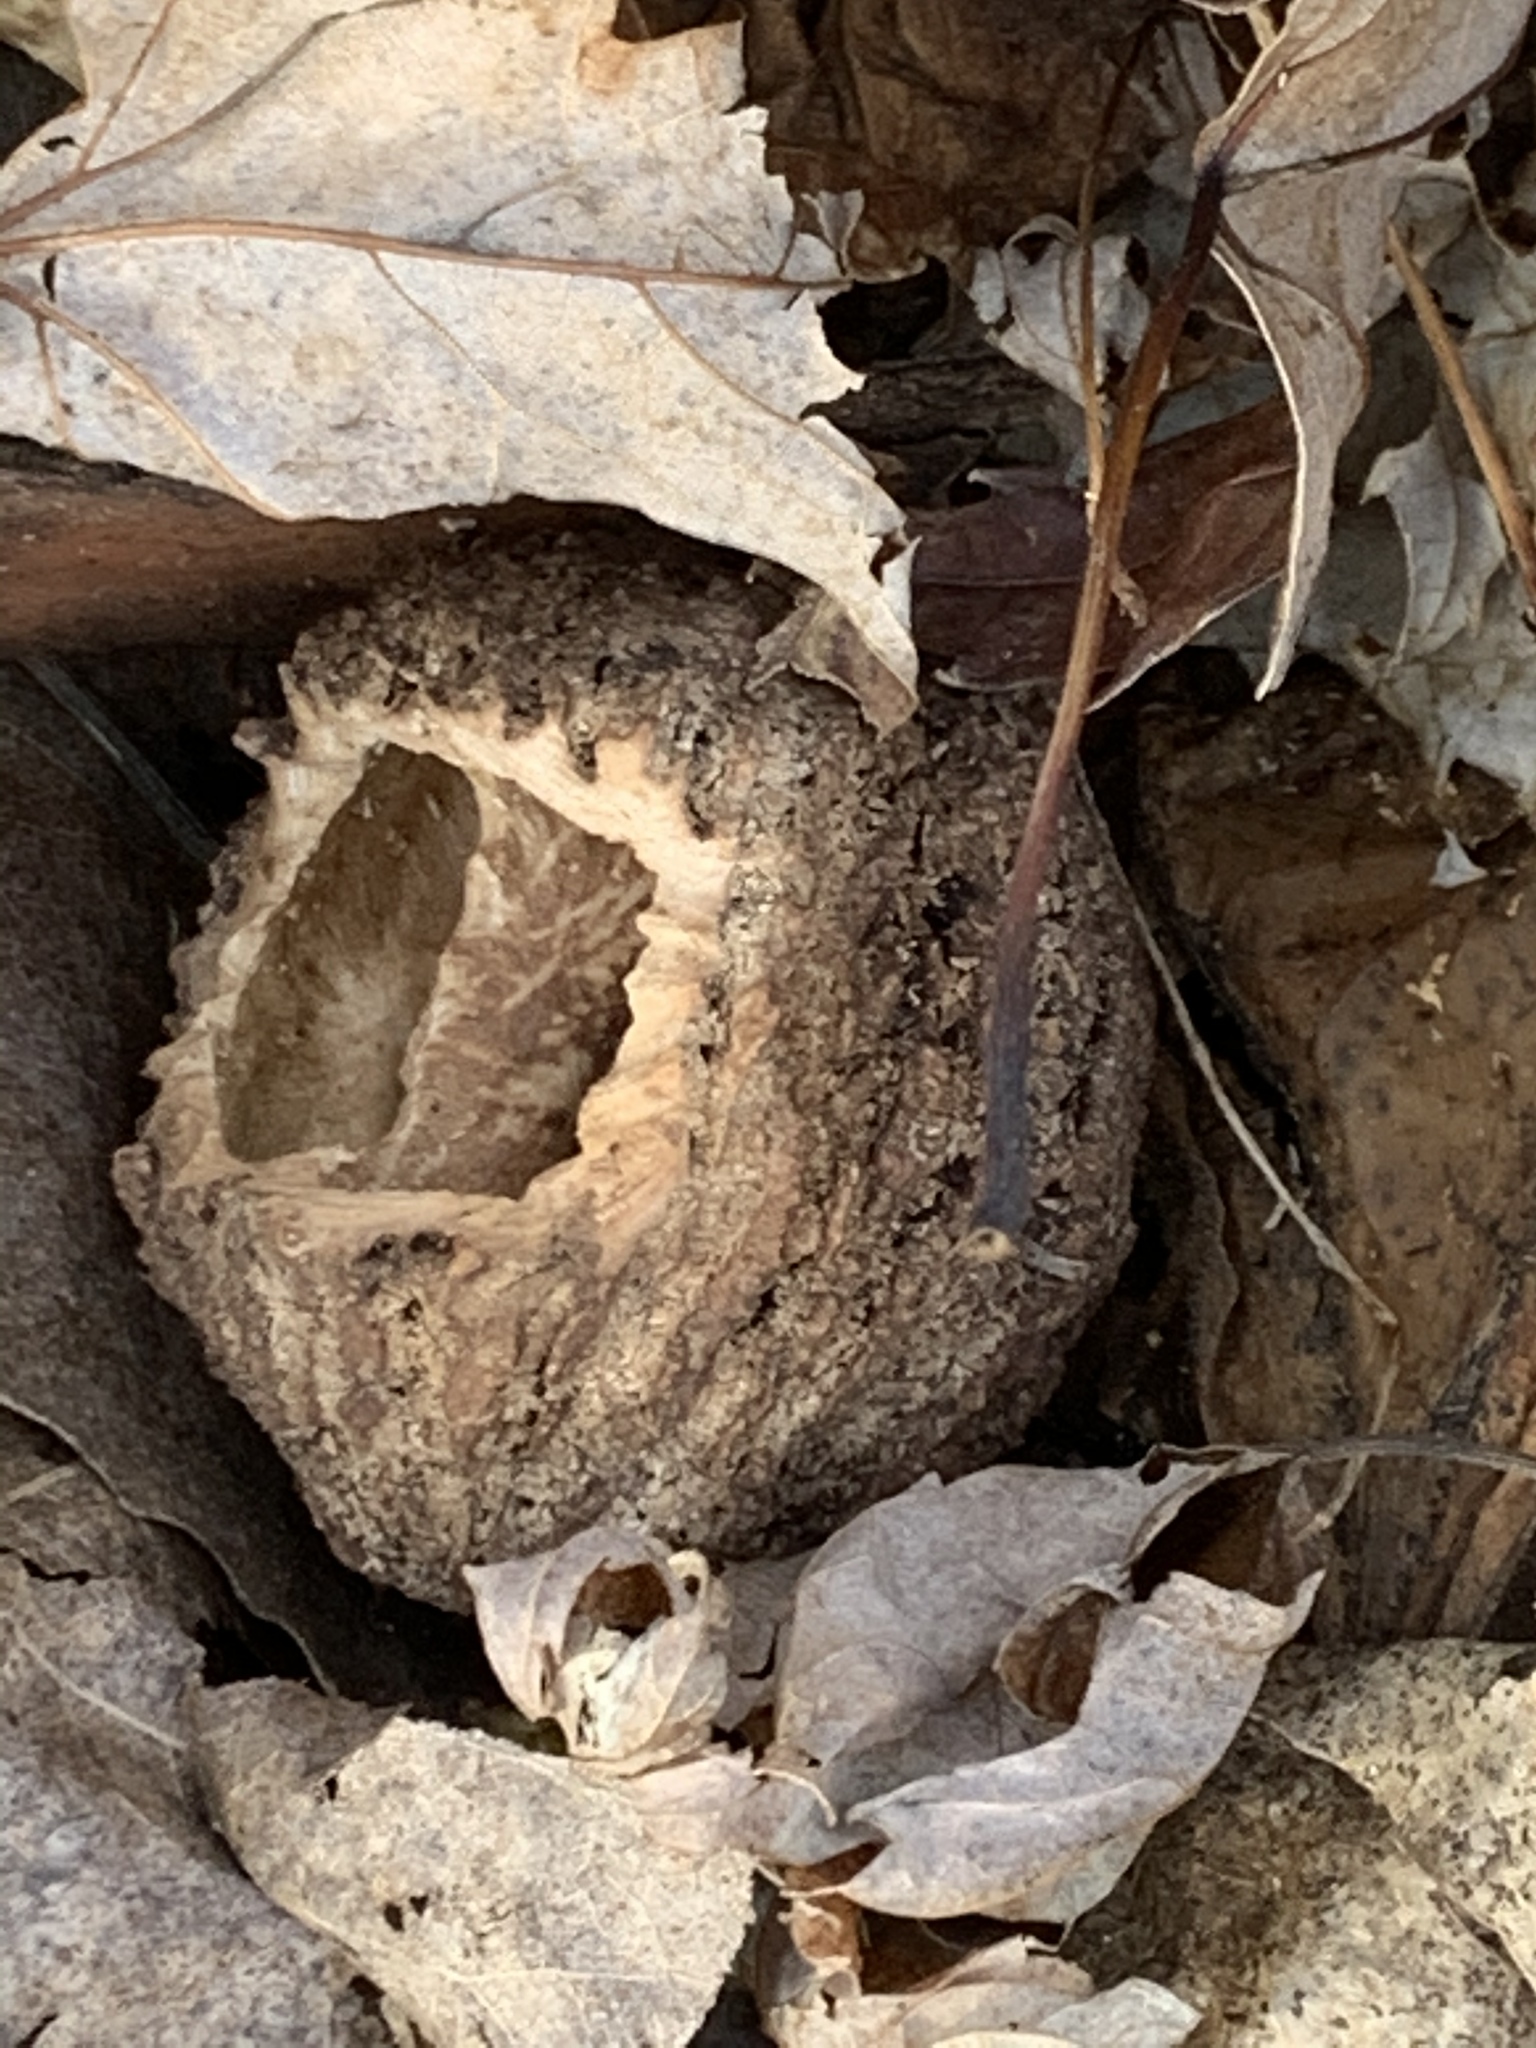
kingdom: Plantae
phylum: Tracheophyta
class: Magnoliopsida
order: Fagales
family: Juglandaceae
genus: Juglans
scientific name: Juglans nigra
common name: Black walnut
